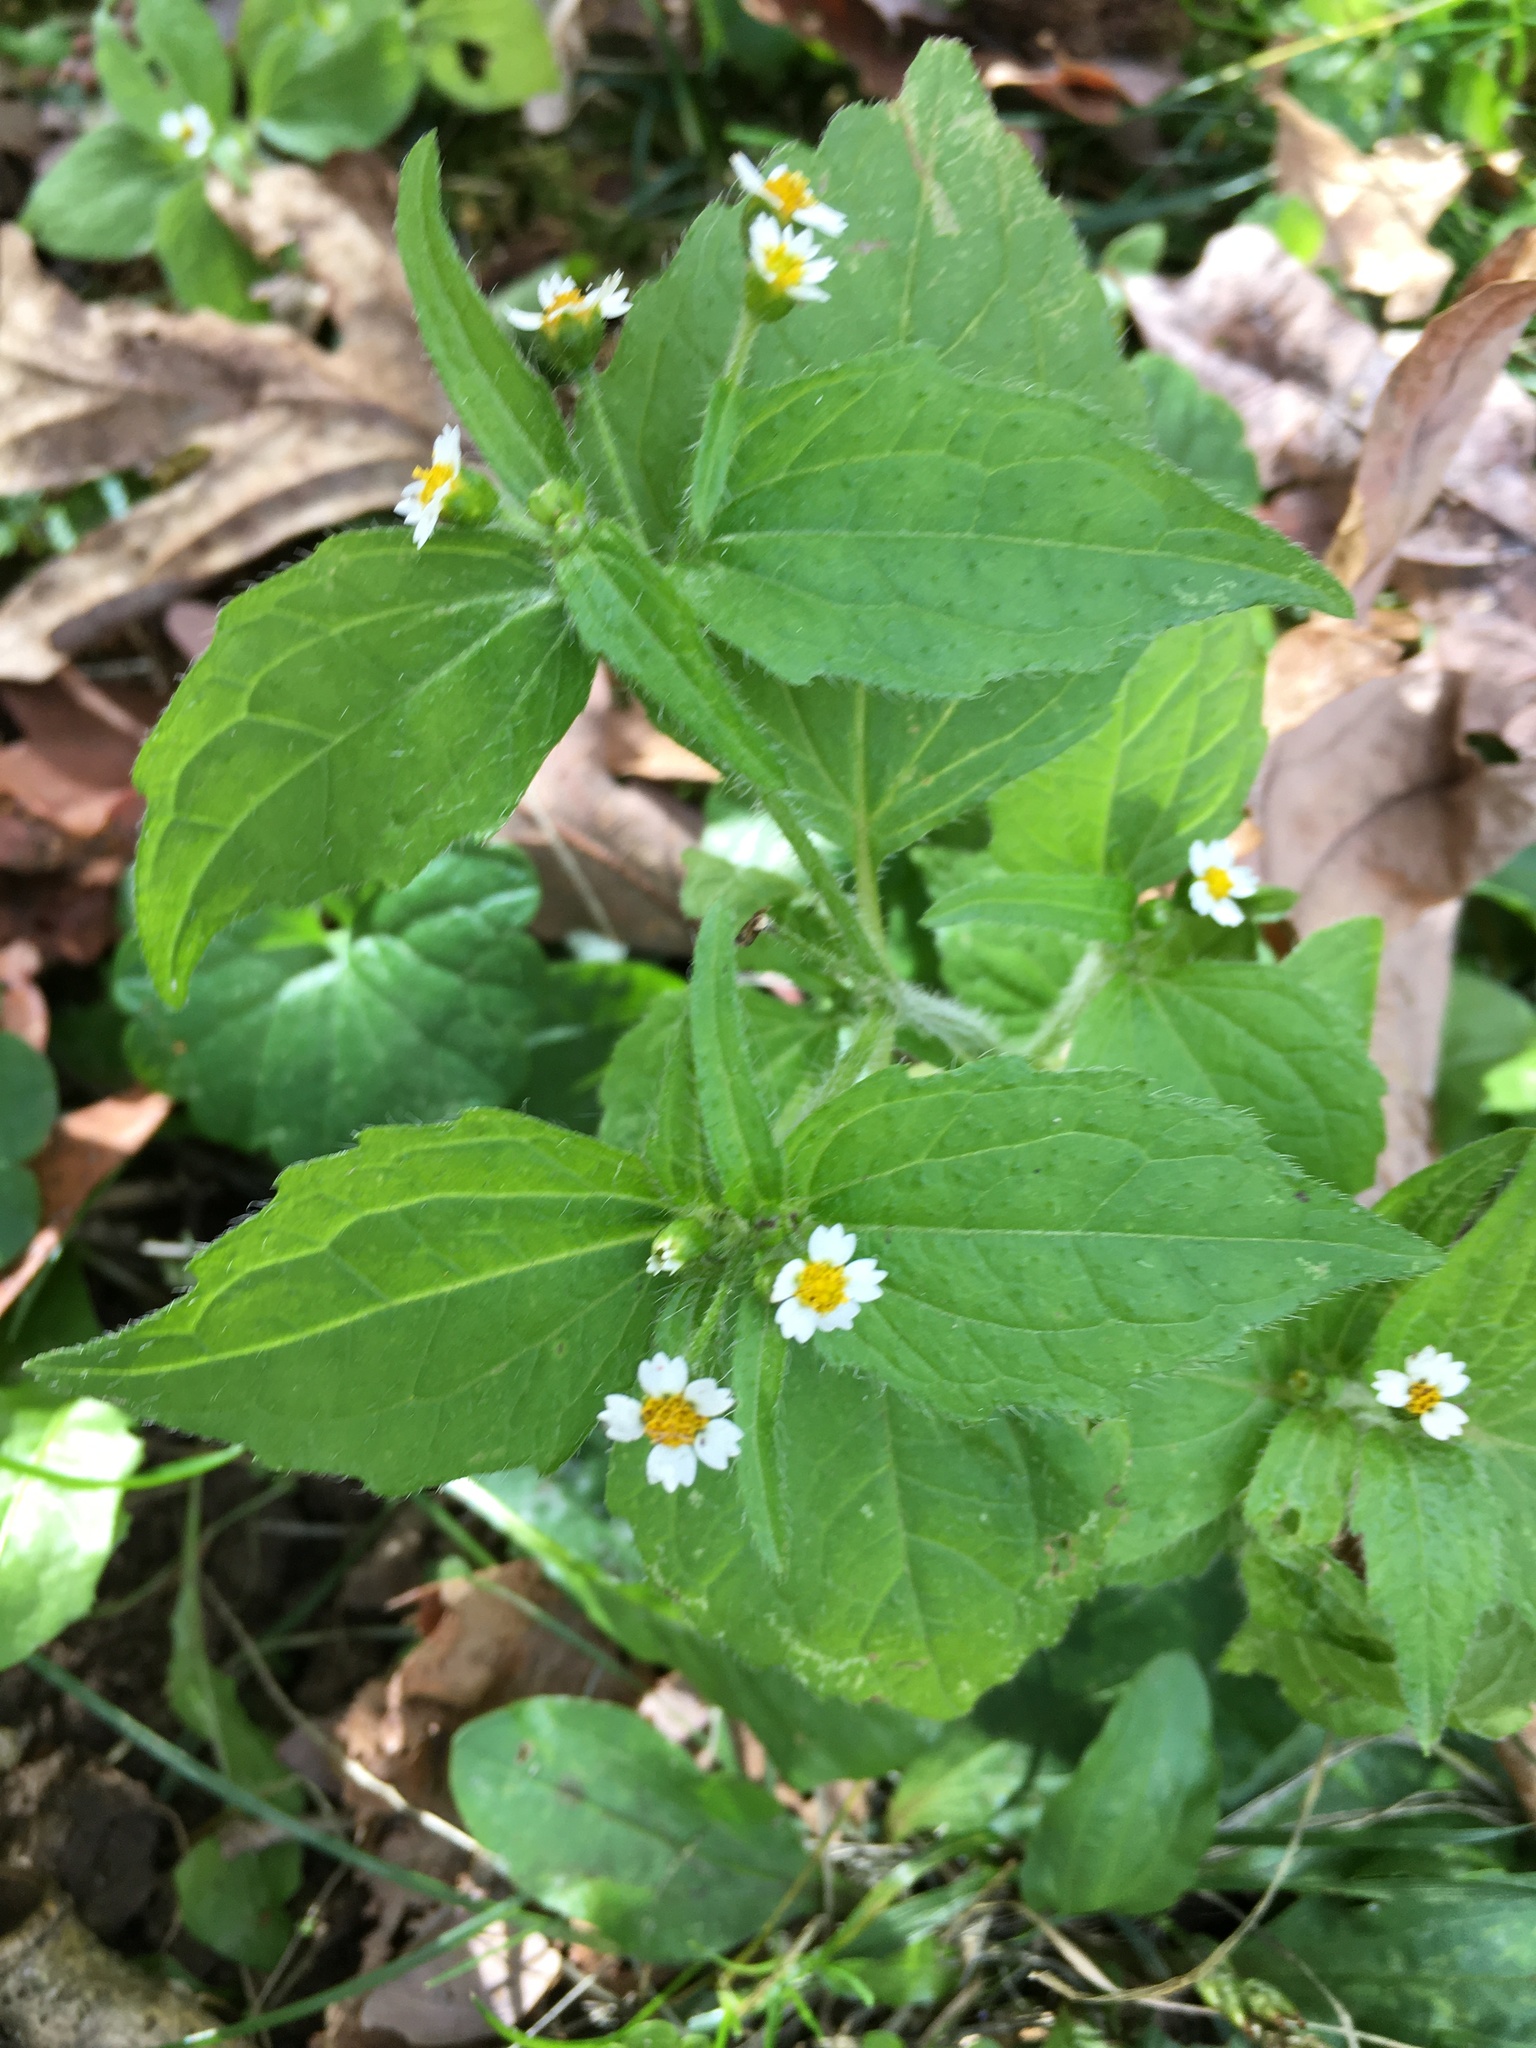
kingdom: Plantae
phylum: Tracheophyta
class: Magnoliopsida
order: Asterales
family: Asteraceae
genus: Galinsoga
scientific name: Galinsoga quadriradiata
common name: Shaggy soldier
